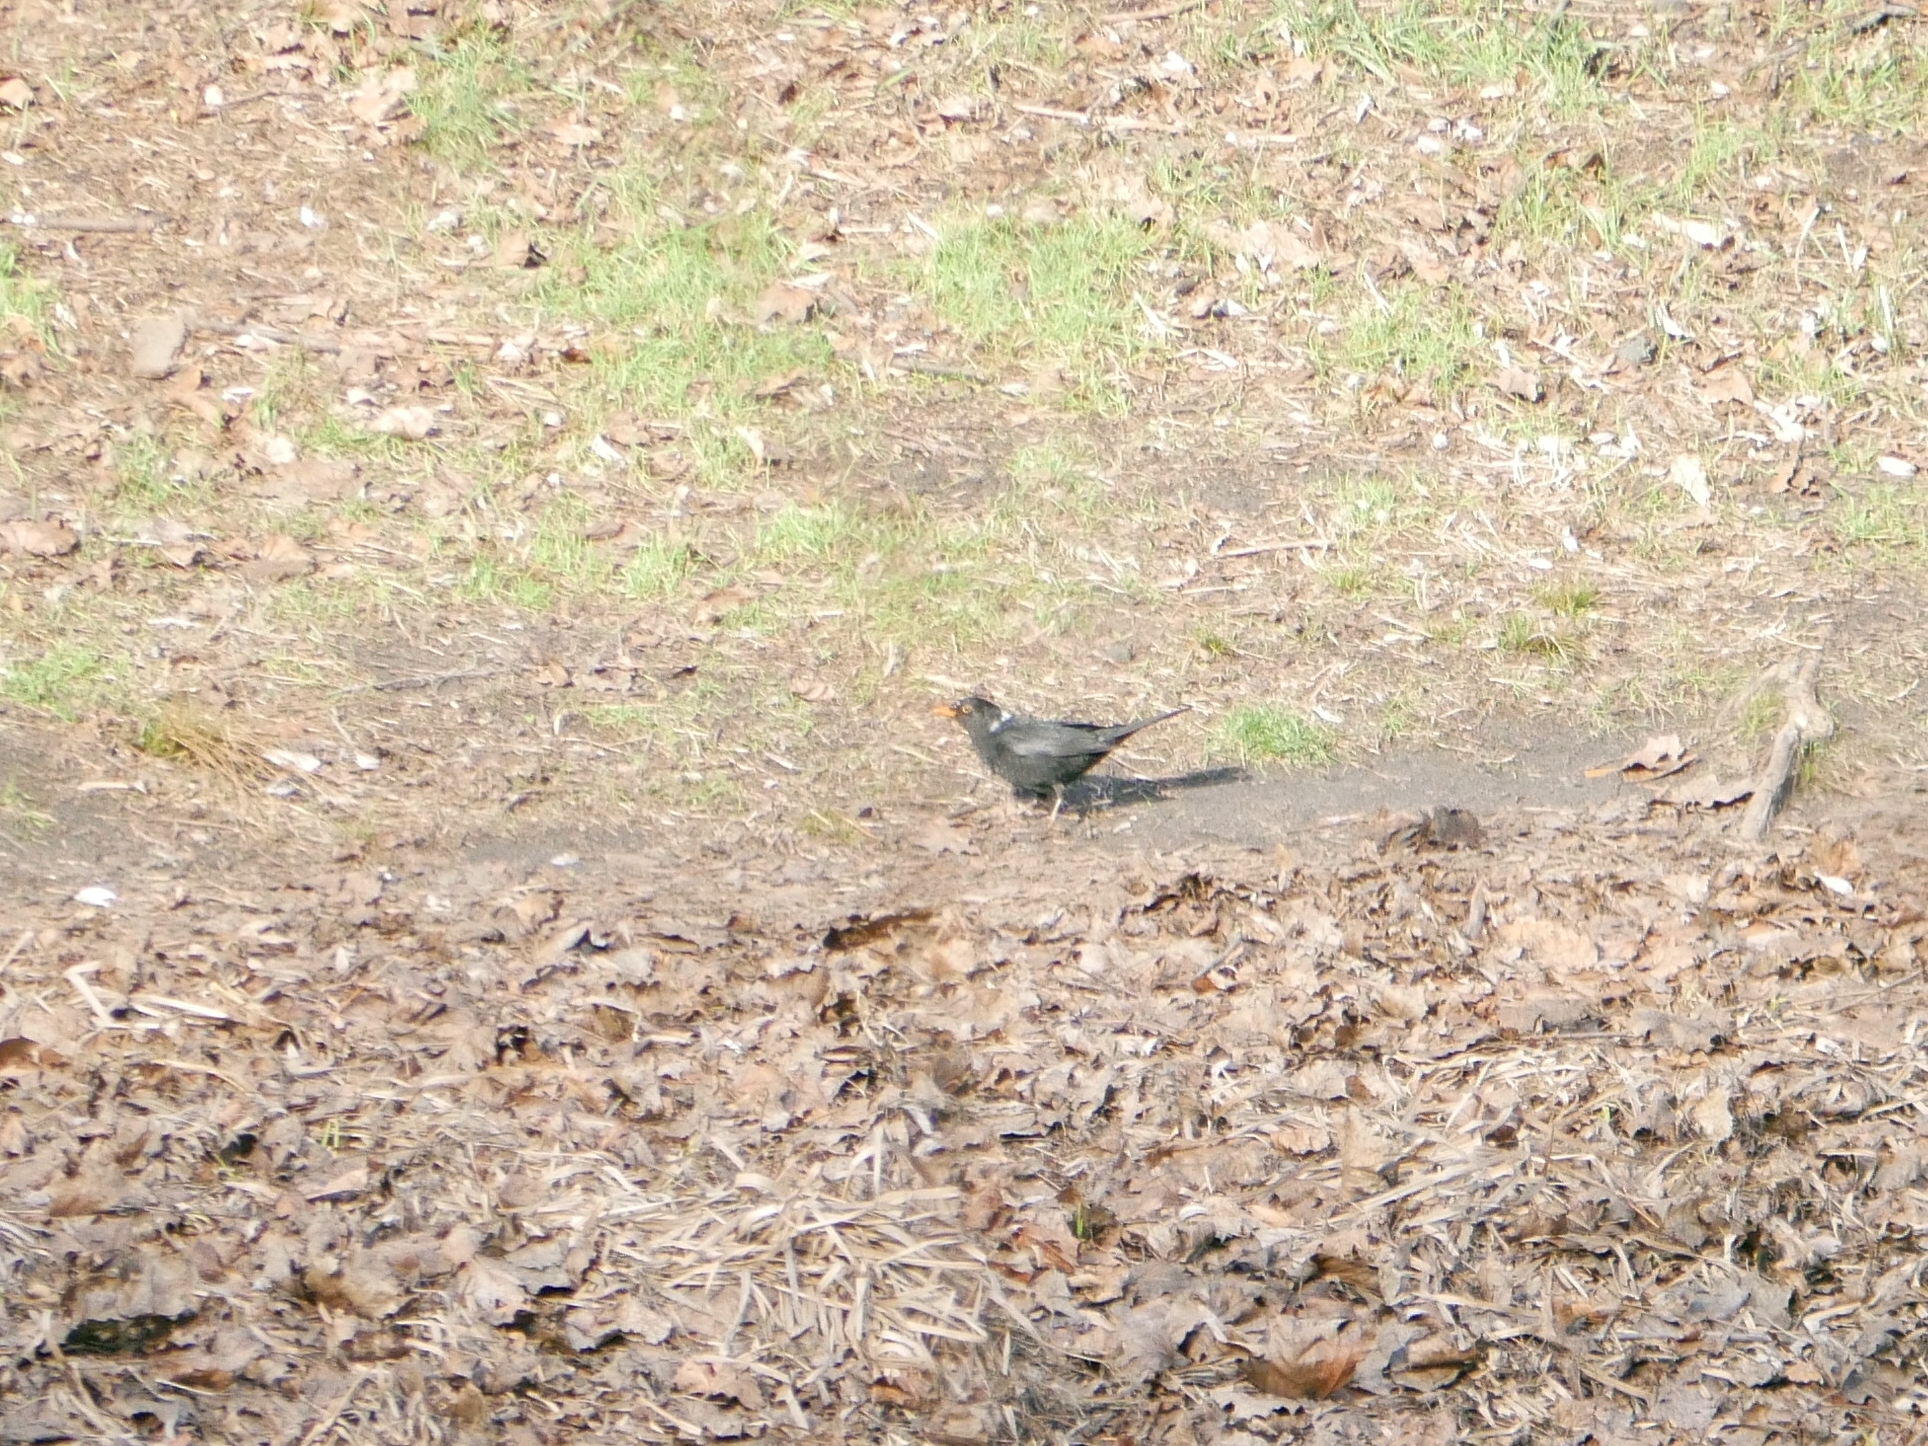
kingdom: Animalia
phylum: Chordata
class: Aves
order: Passeriformes
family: Turdidae
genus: Turdus
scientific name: Turdus merula
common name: Common blackbird
